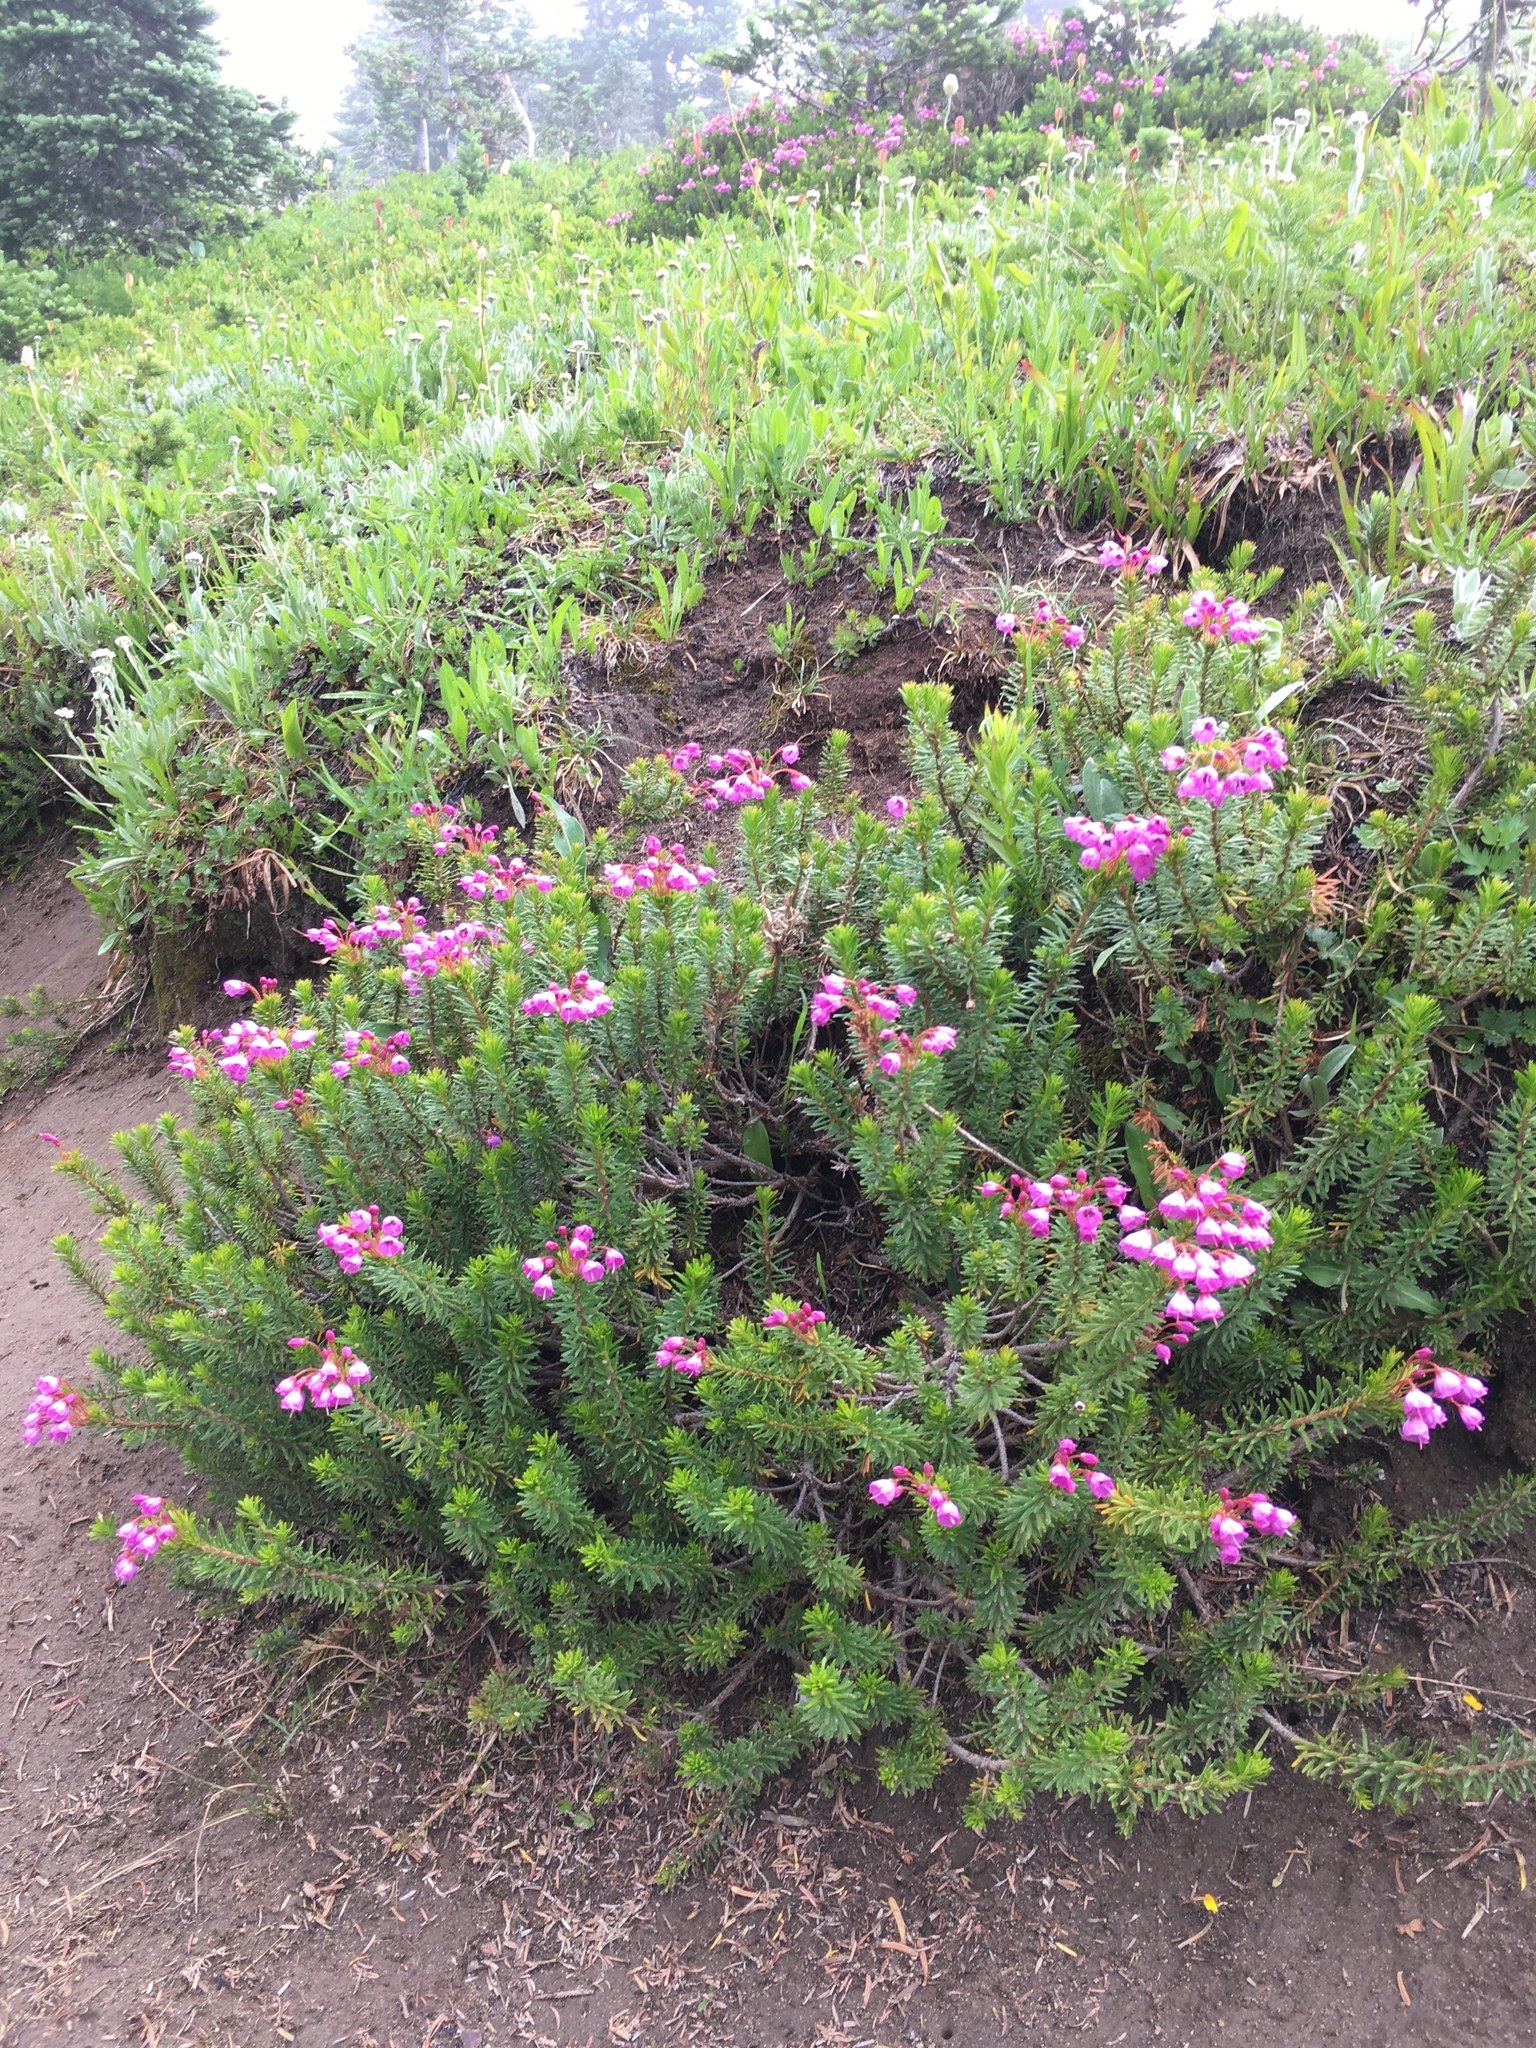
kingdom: Plantae
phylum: Tracheophyta
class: Magnoliopsida
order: Ericales
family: Ericaceae
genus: Phyllodoce
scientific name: Phyllodoce empetriformis
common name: Pink mountain heather
